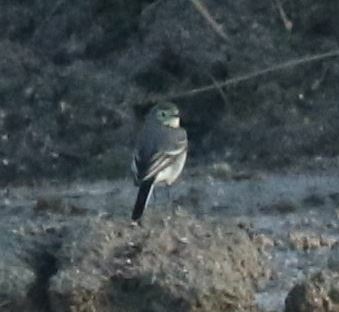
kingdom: Animalia
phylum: Chordata
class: Aves
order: Passeriformes
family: Motacillidae
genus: Motacilla
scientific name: Motacilla alba
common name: White wagtail
